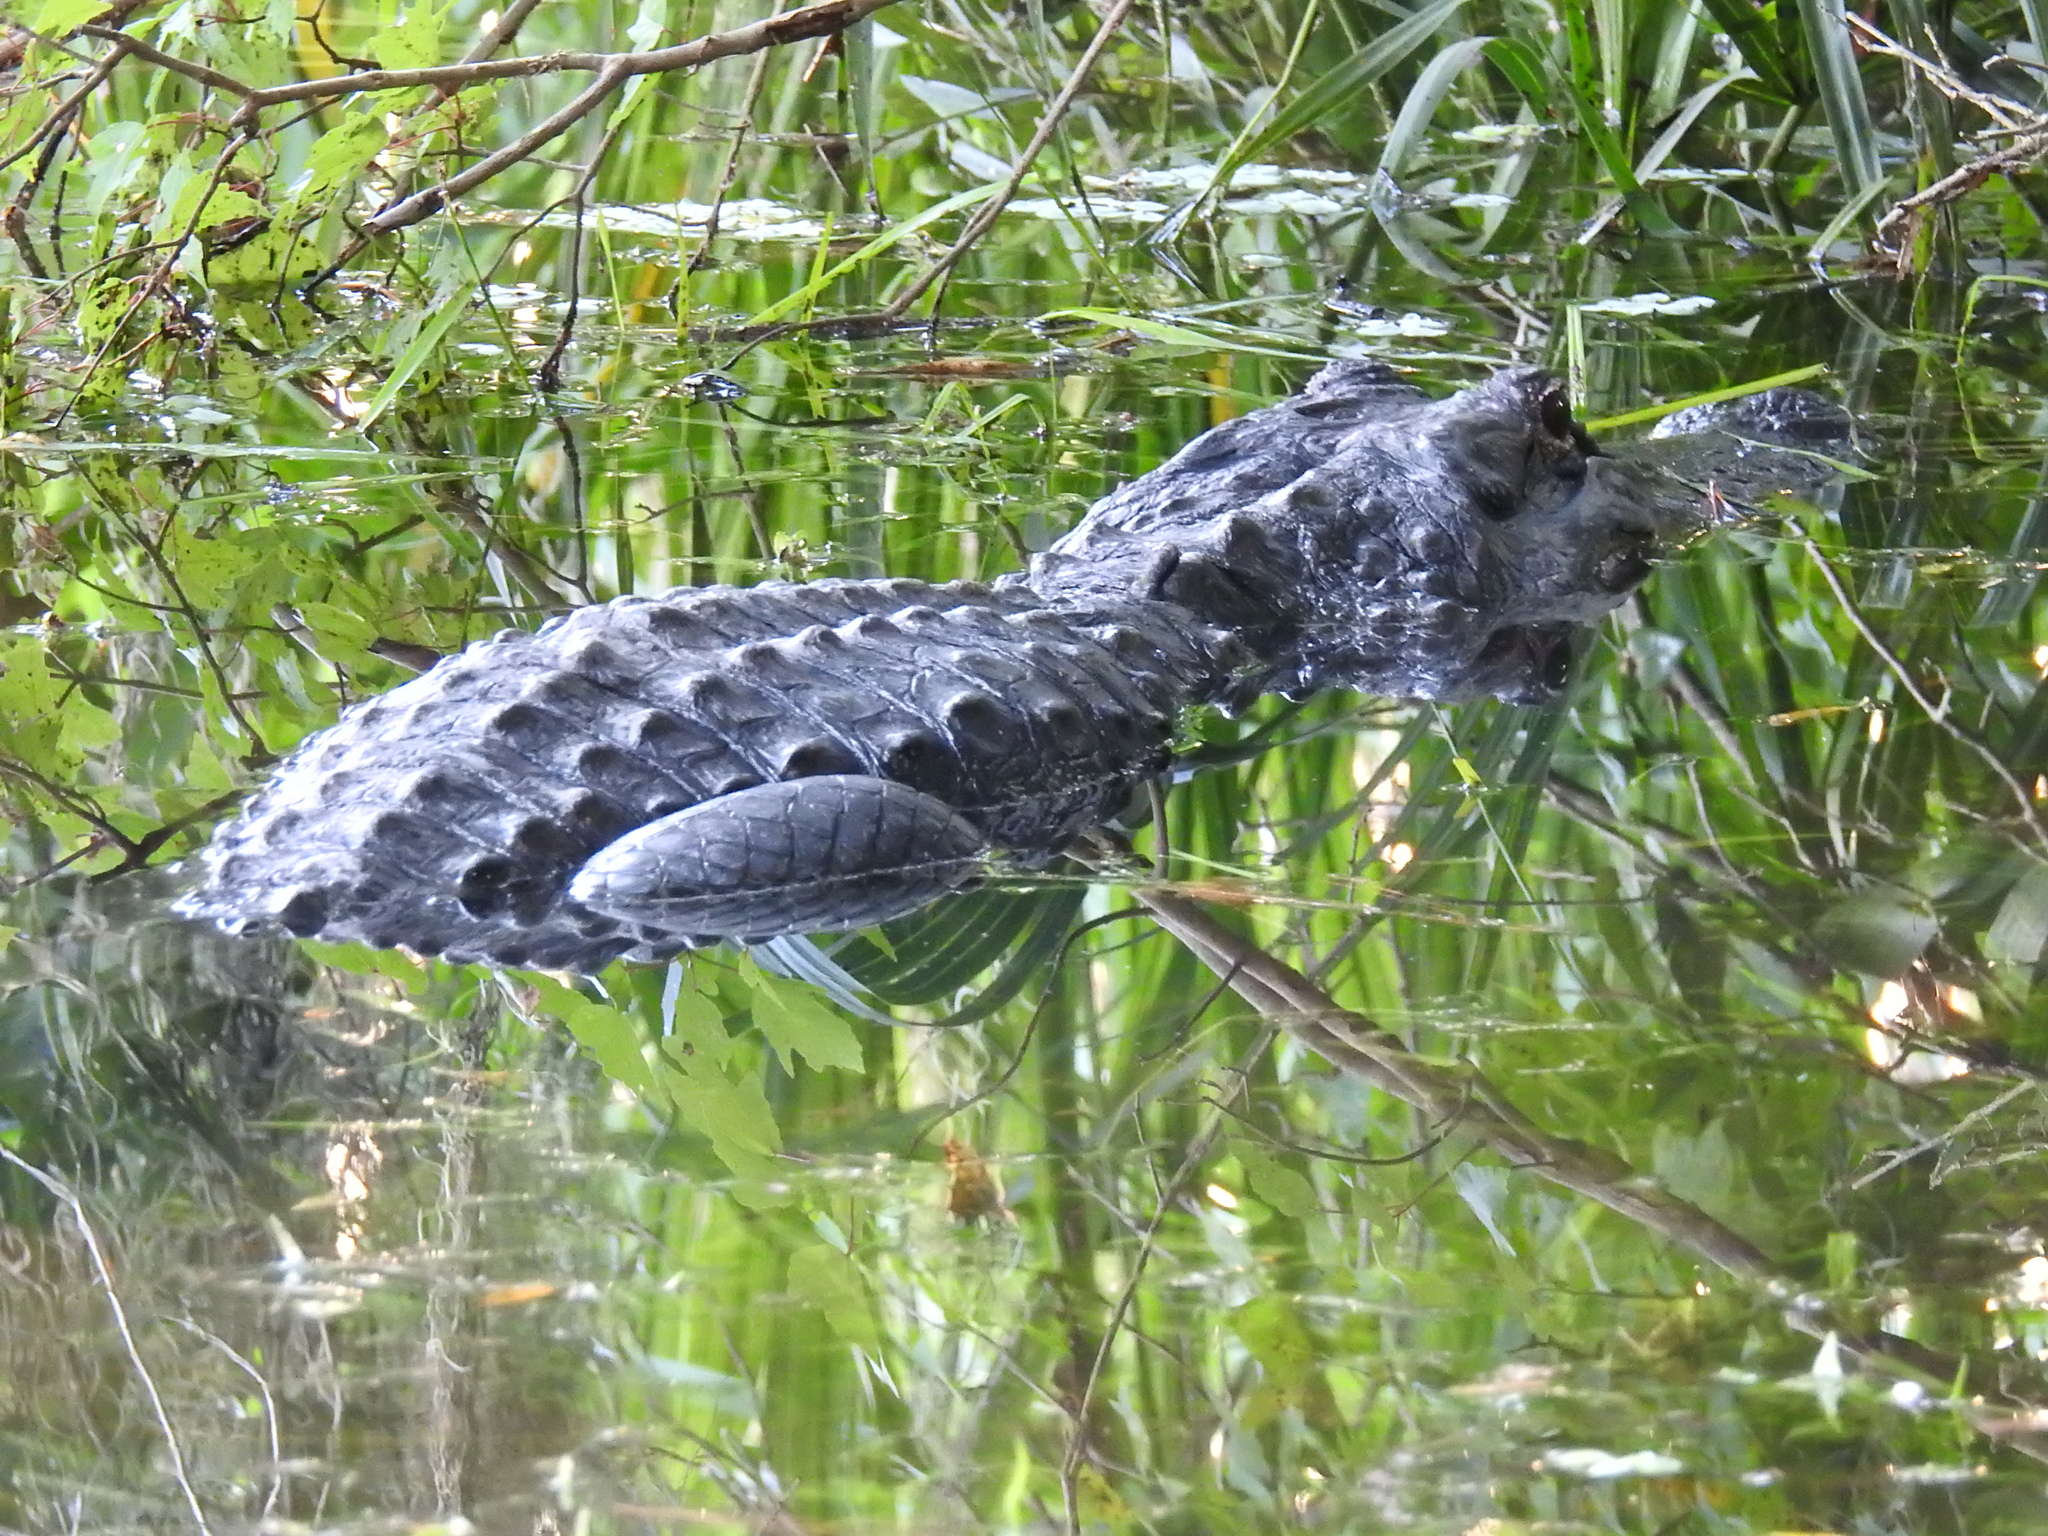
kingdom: Animalia
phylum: Chordata
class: Crocodylia
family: Alligatoridae
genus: Alligator
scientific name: Alligator mississippiensis
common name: American alligator
